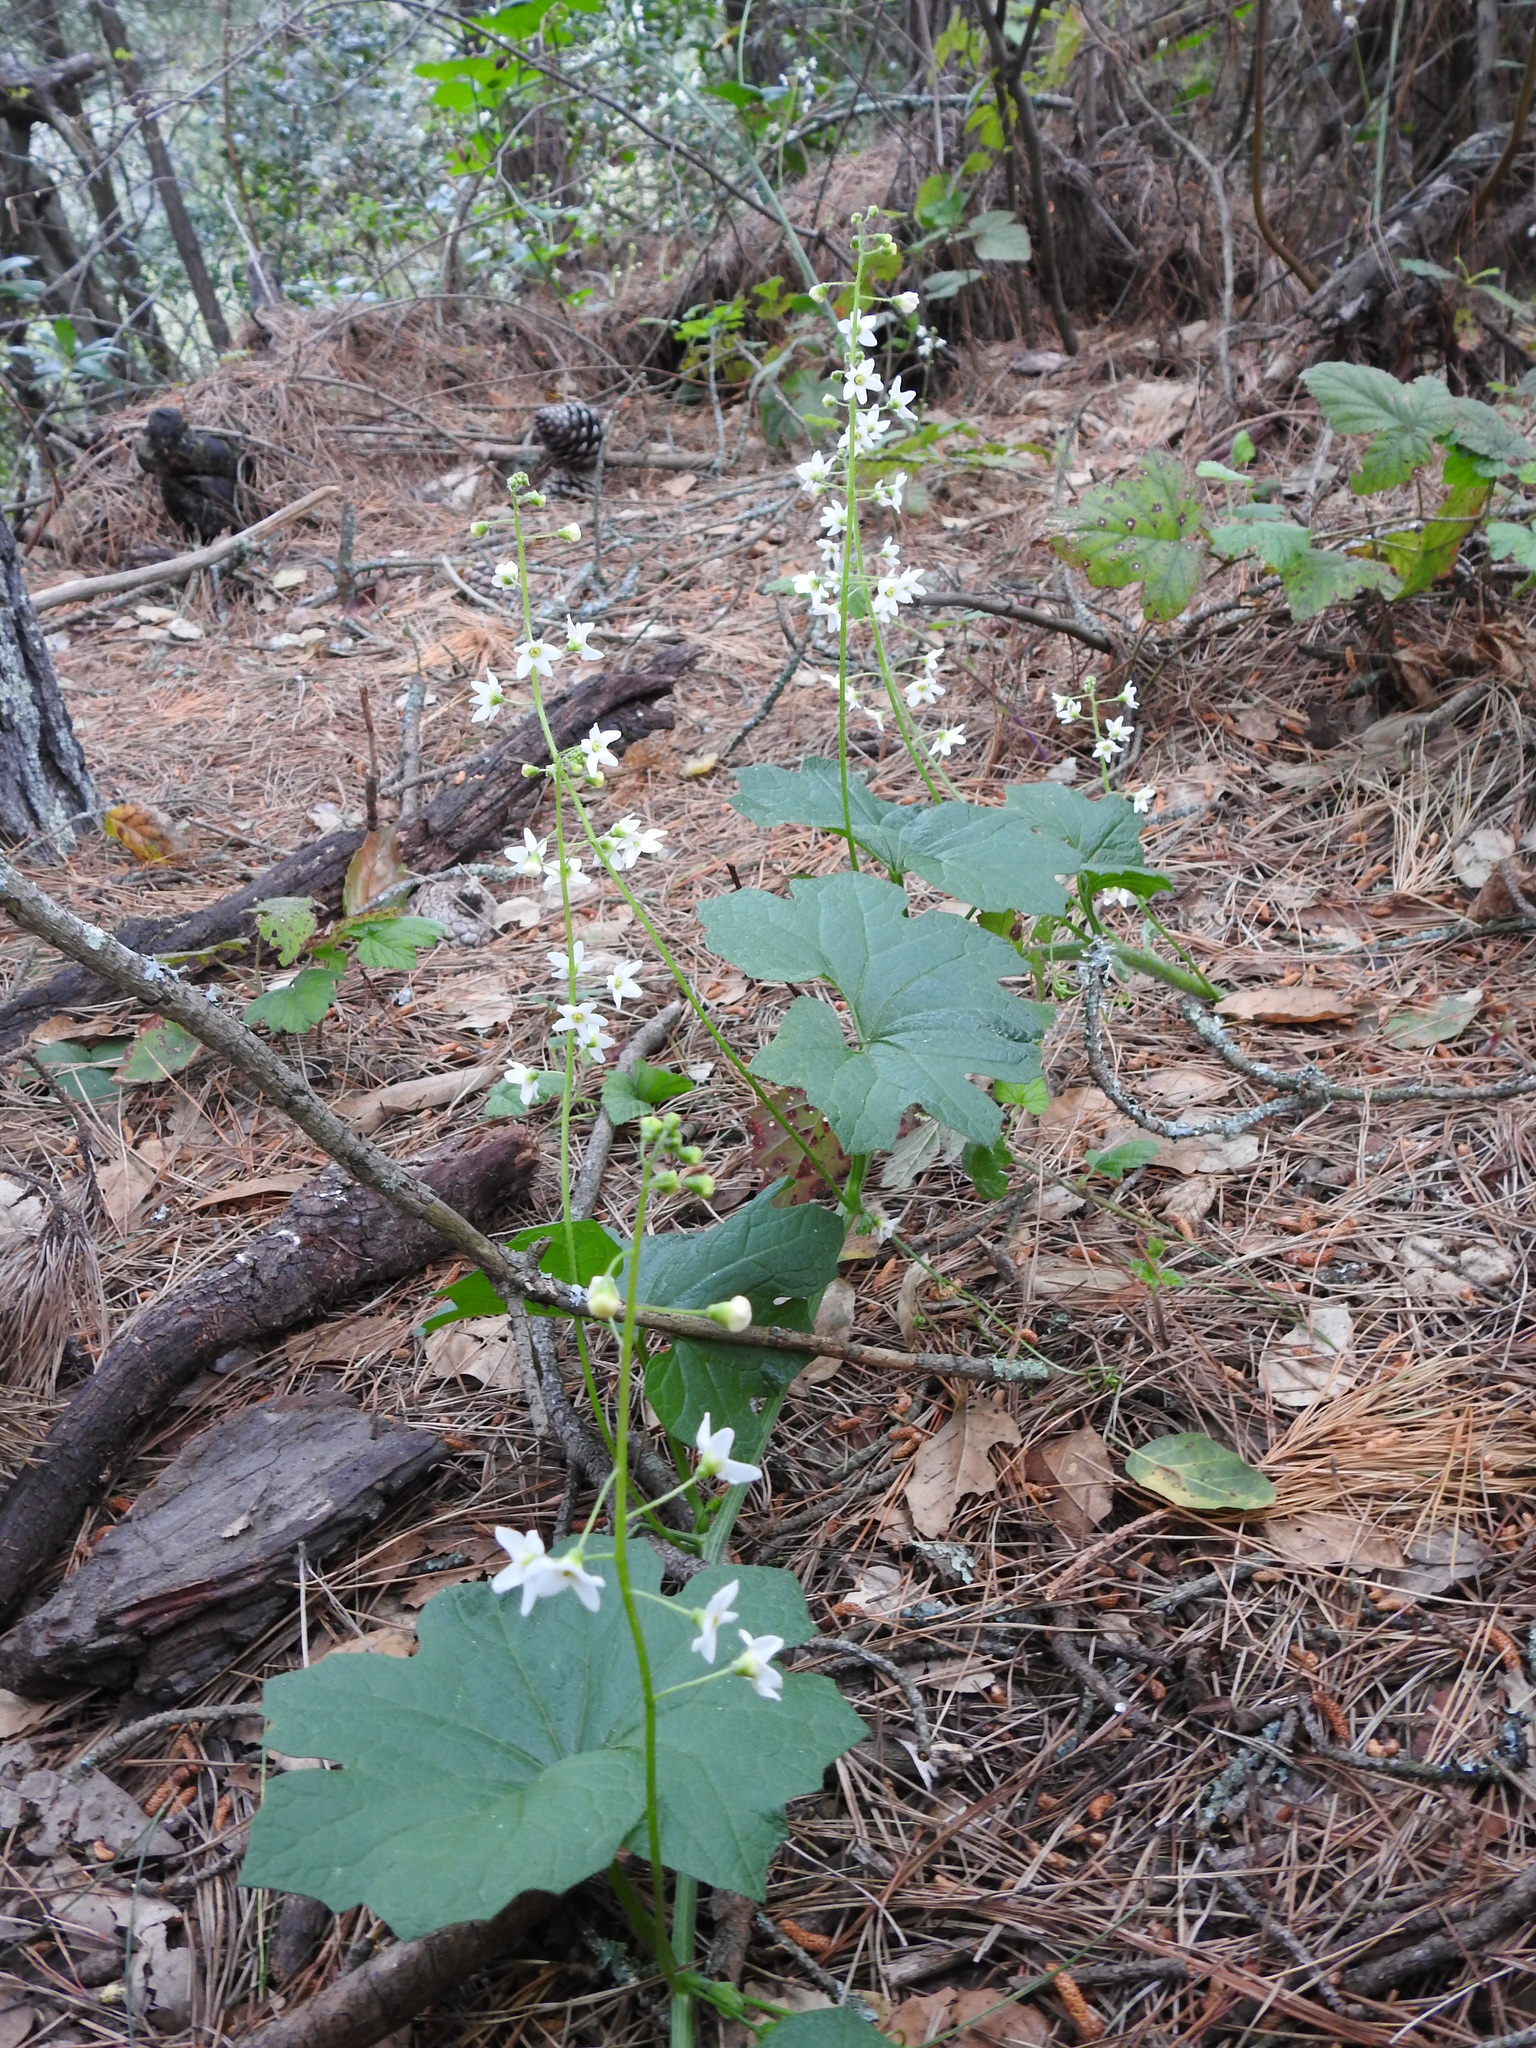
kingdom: Plantae
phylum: Tracheophyta
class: Magnoliopsida
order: Cucurbitales
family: Cucurbitaceae
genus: Marah
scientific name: Marah oregana
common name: Coastal manroot
